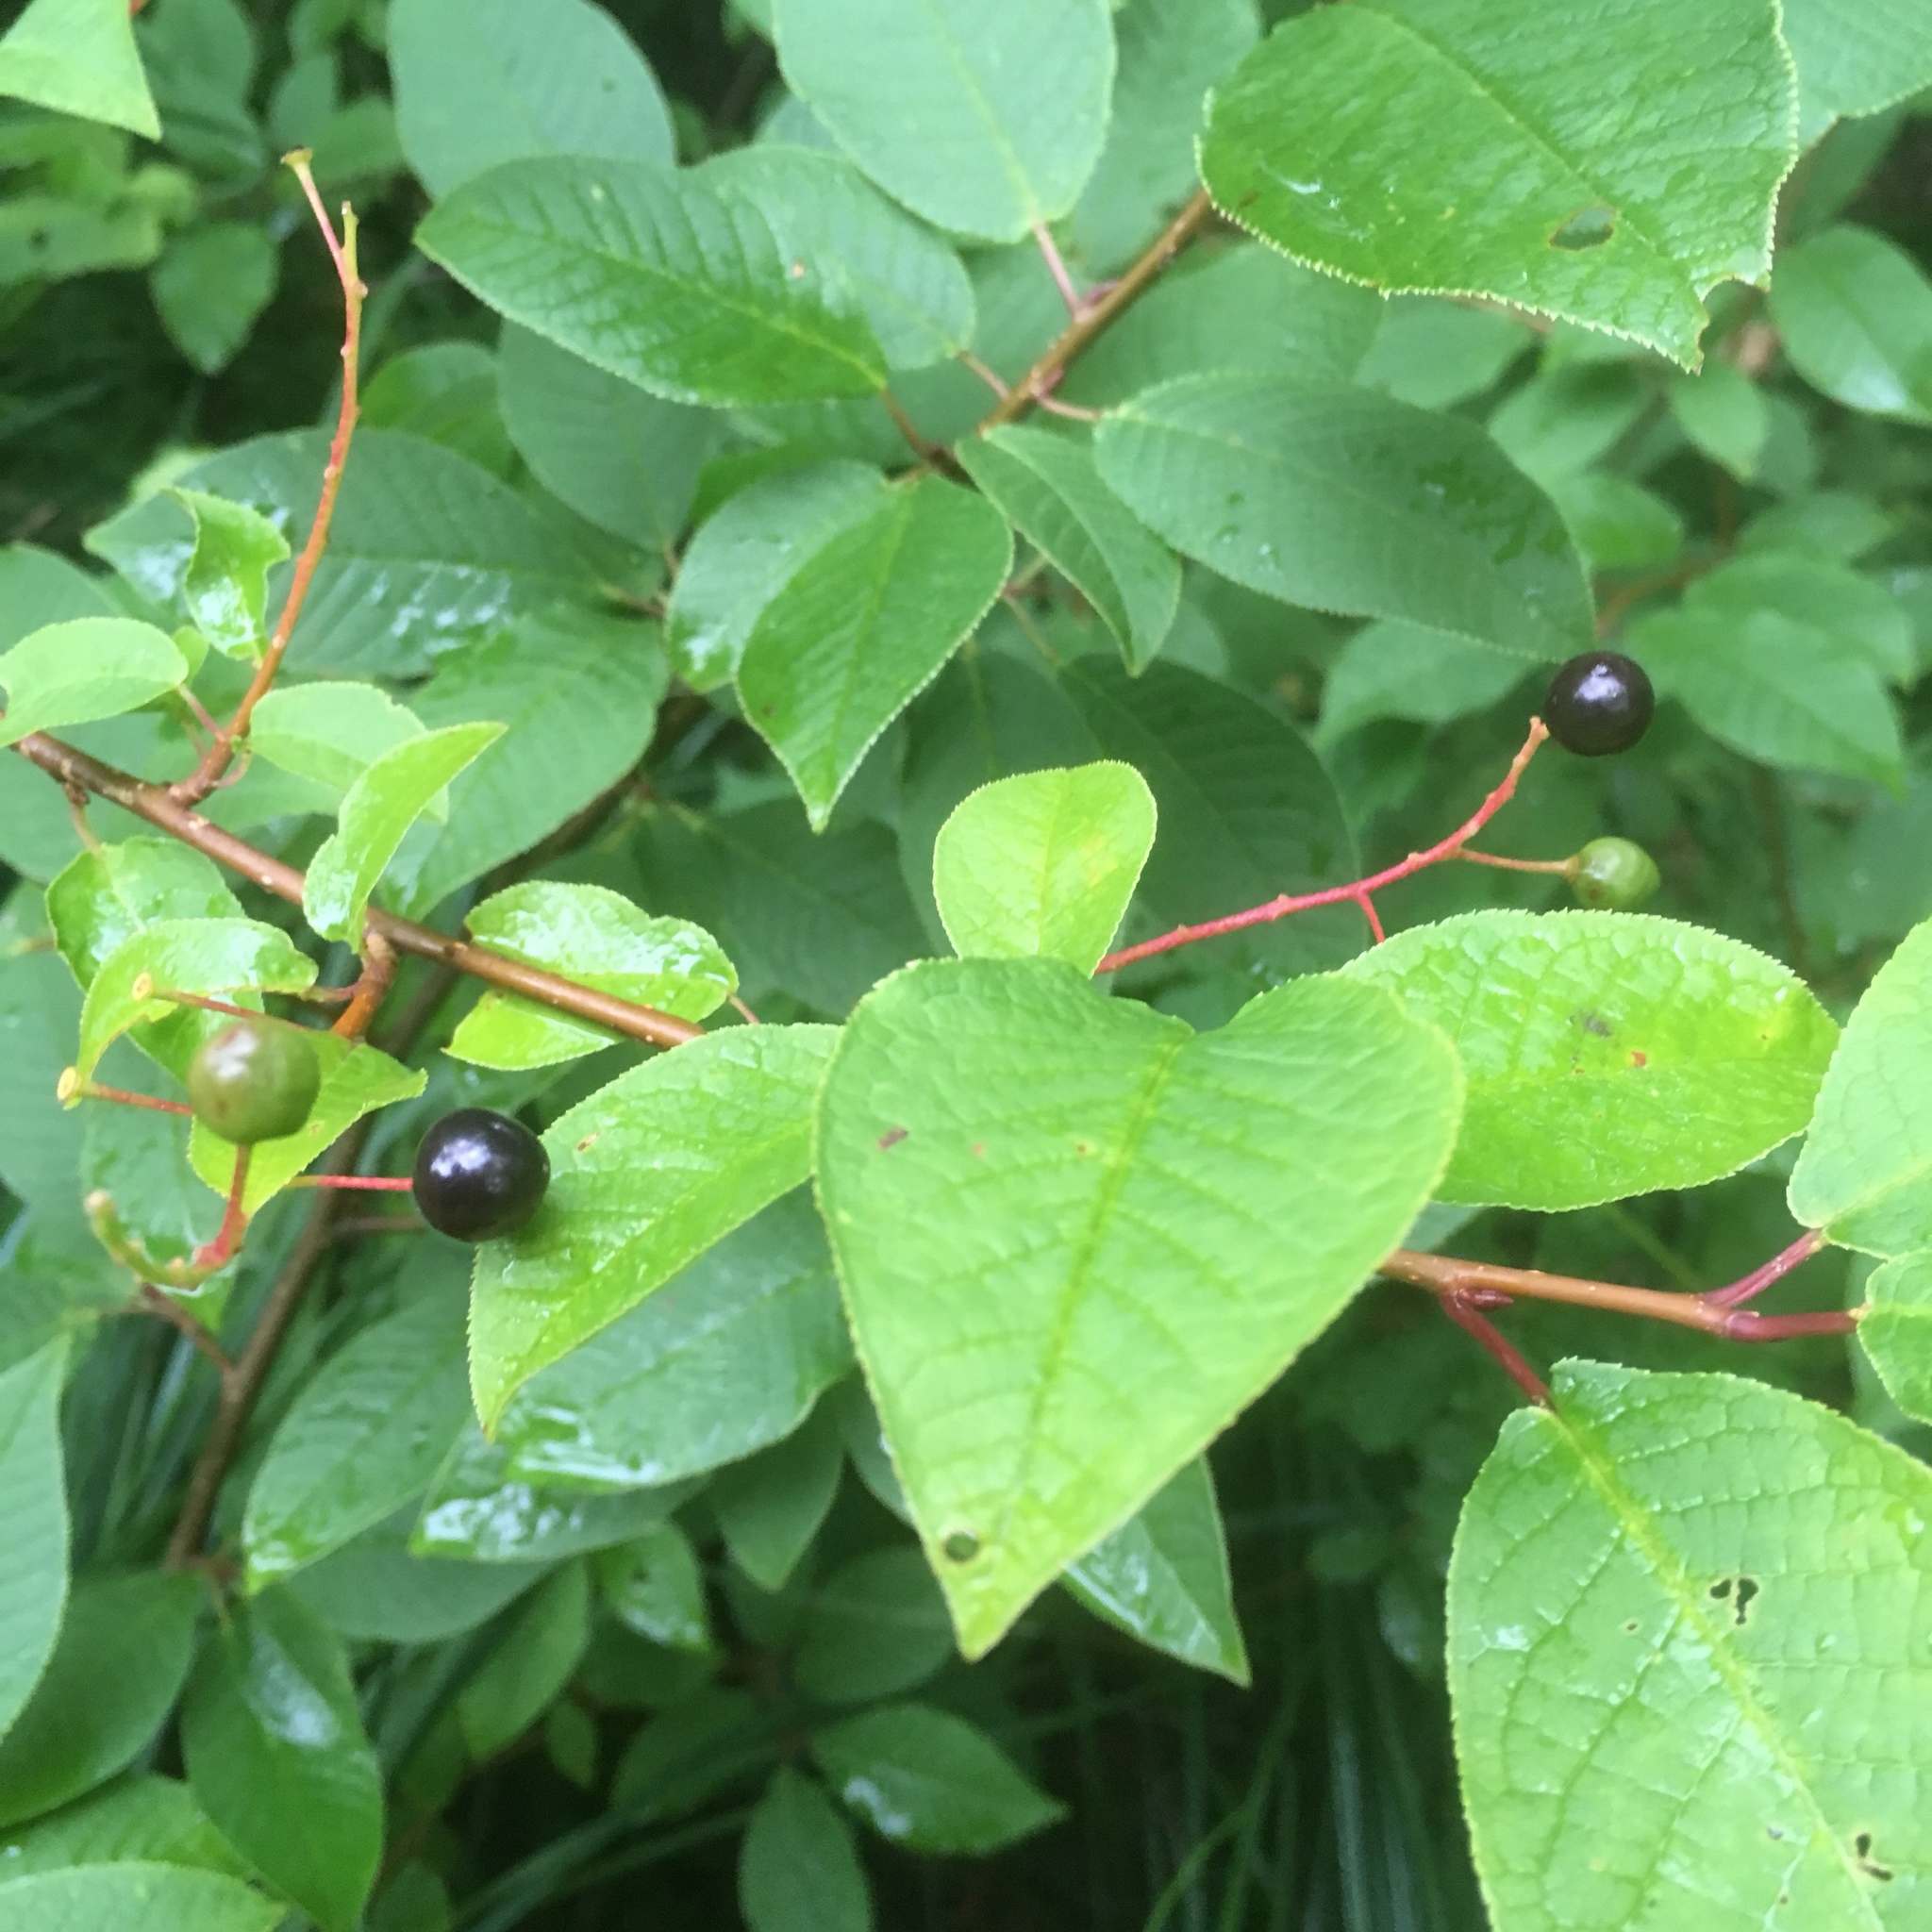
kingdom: Plantae
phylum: Tracheophyta
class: Magnoliopsida
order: Rosales
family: Rosaceae
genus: Prunus
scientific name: Prunus padus
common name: Bird cherry
